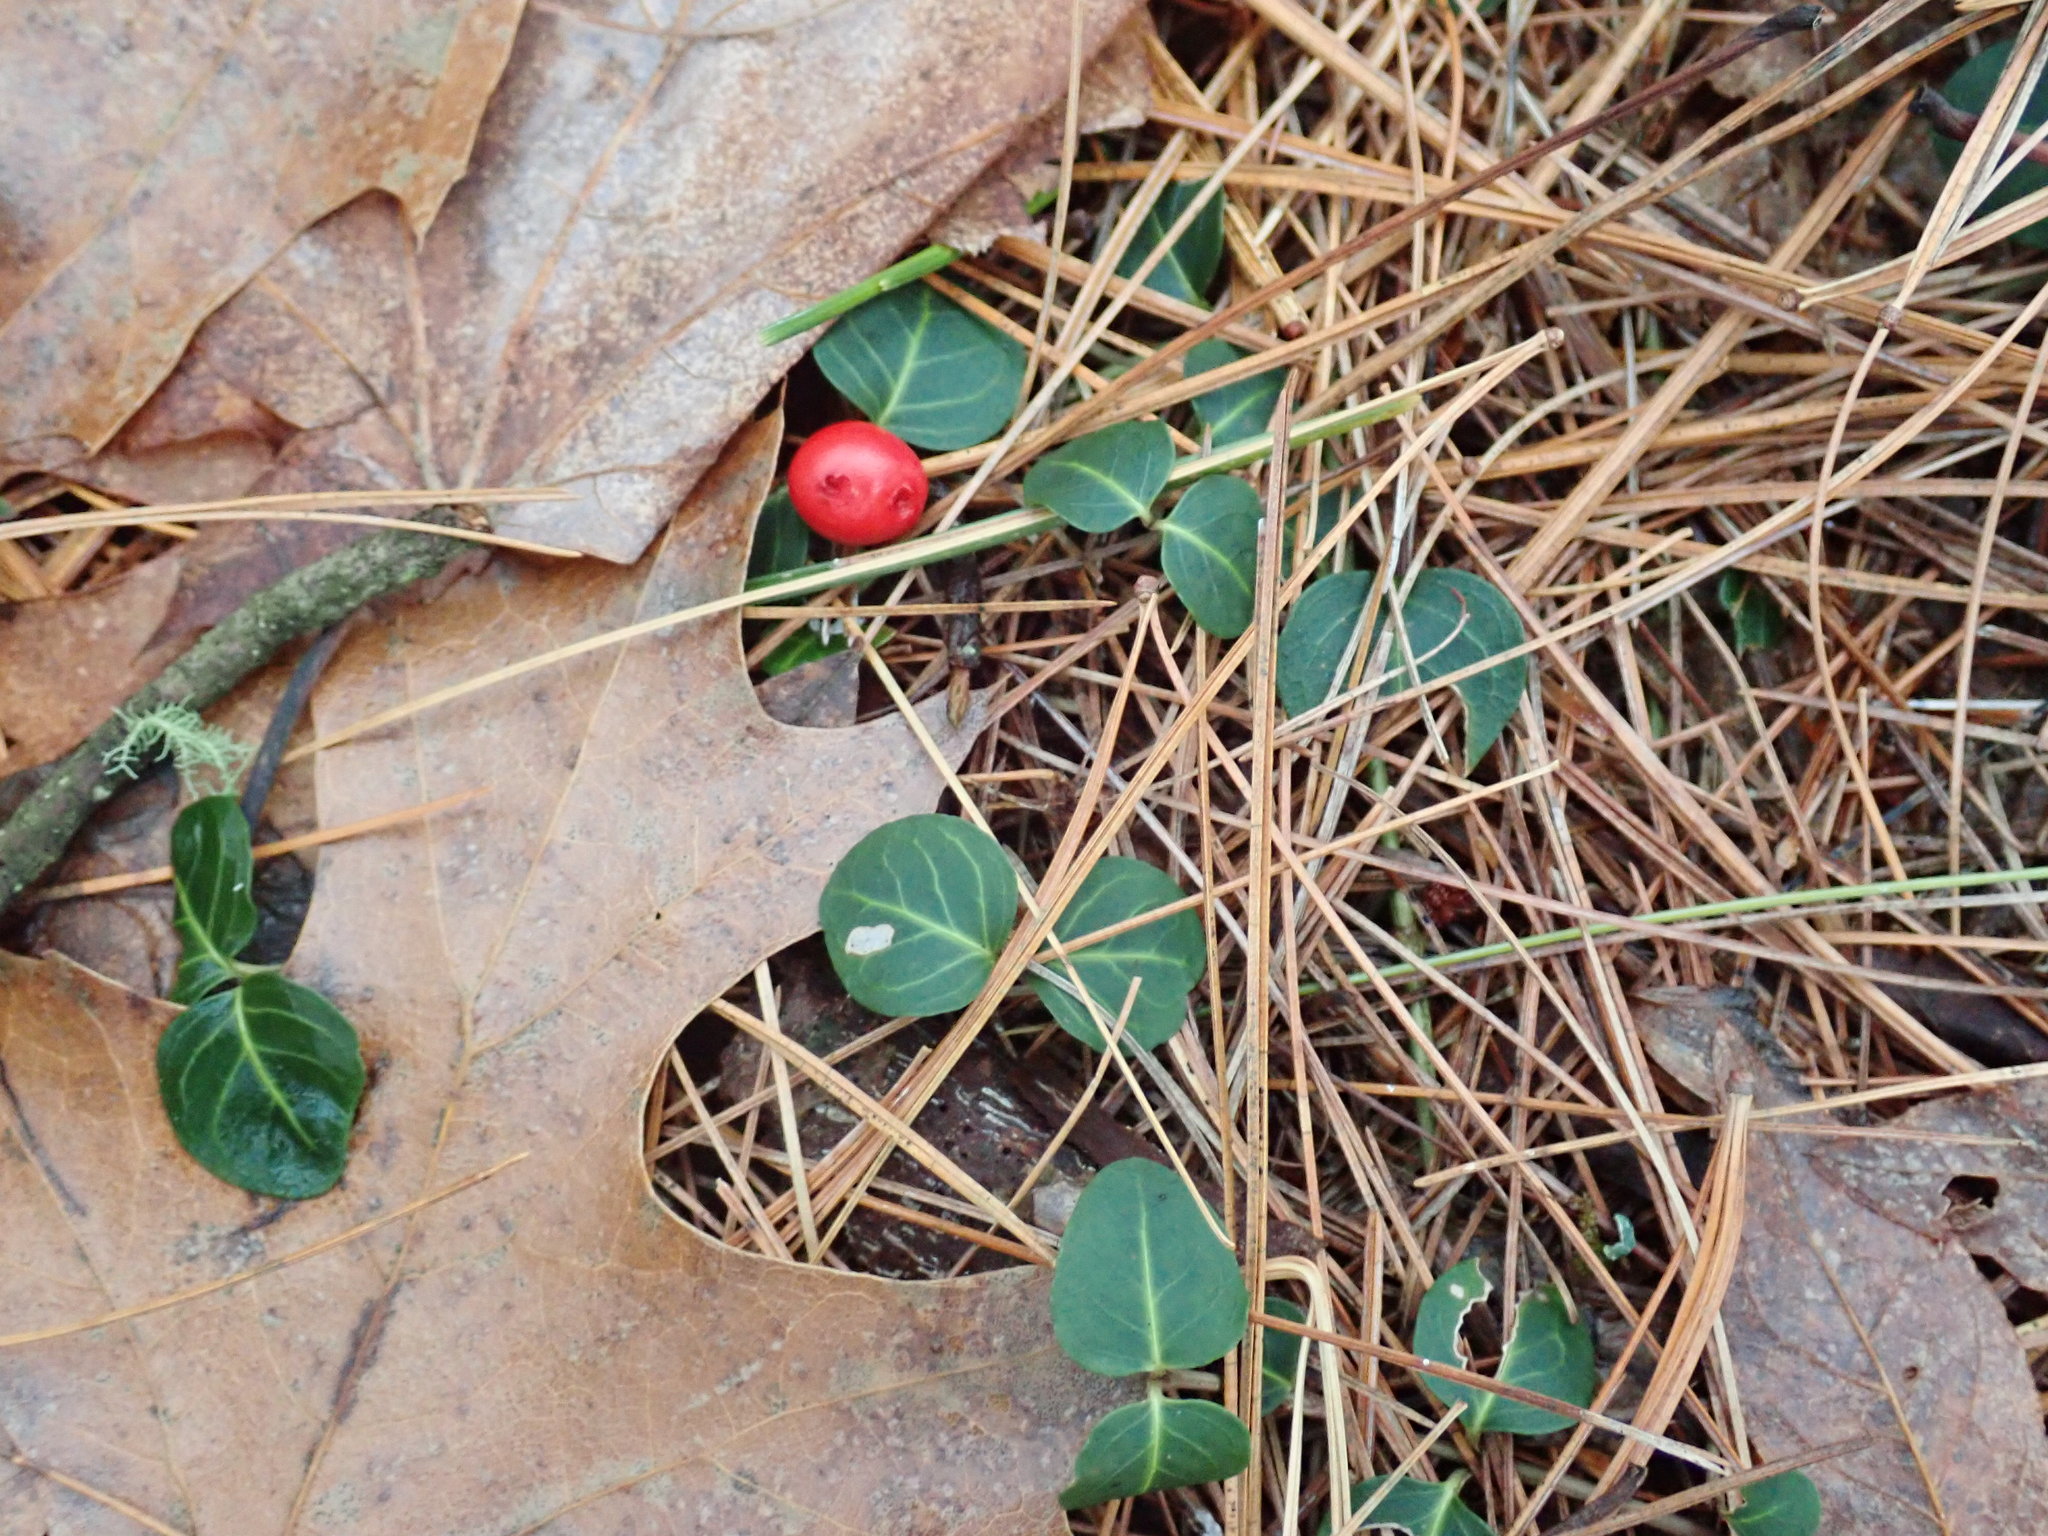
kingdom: Plantae
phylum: Tracheophyta
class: Magnoliopsida
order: Gentianales
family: Rubiaceae
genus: Mitchella
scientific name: Mitchella repens
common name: Partridge-berry
